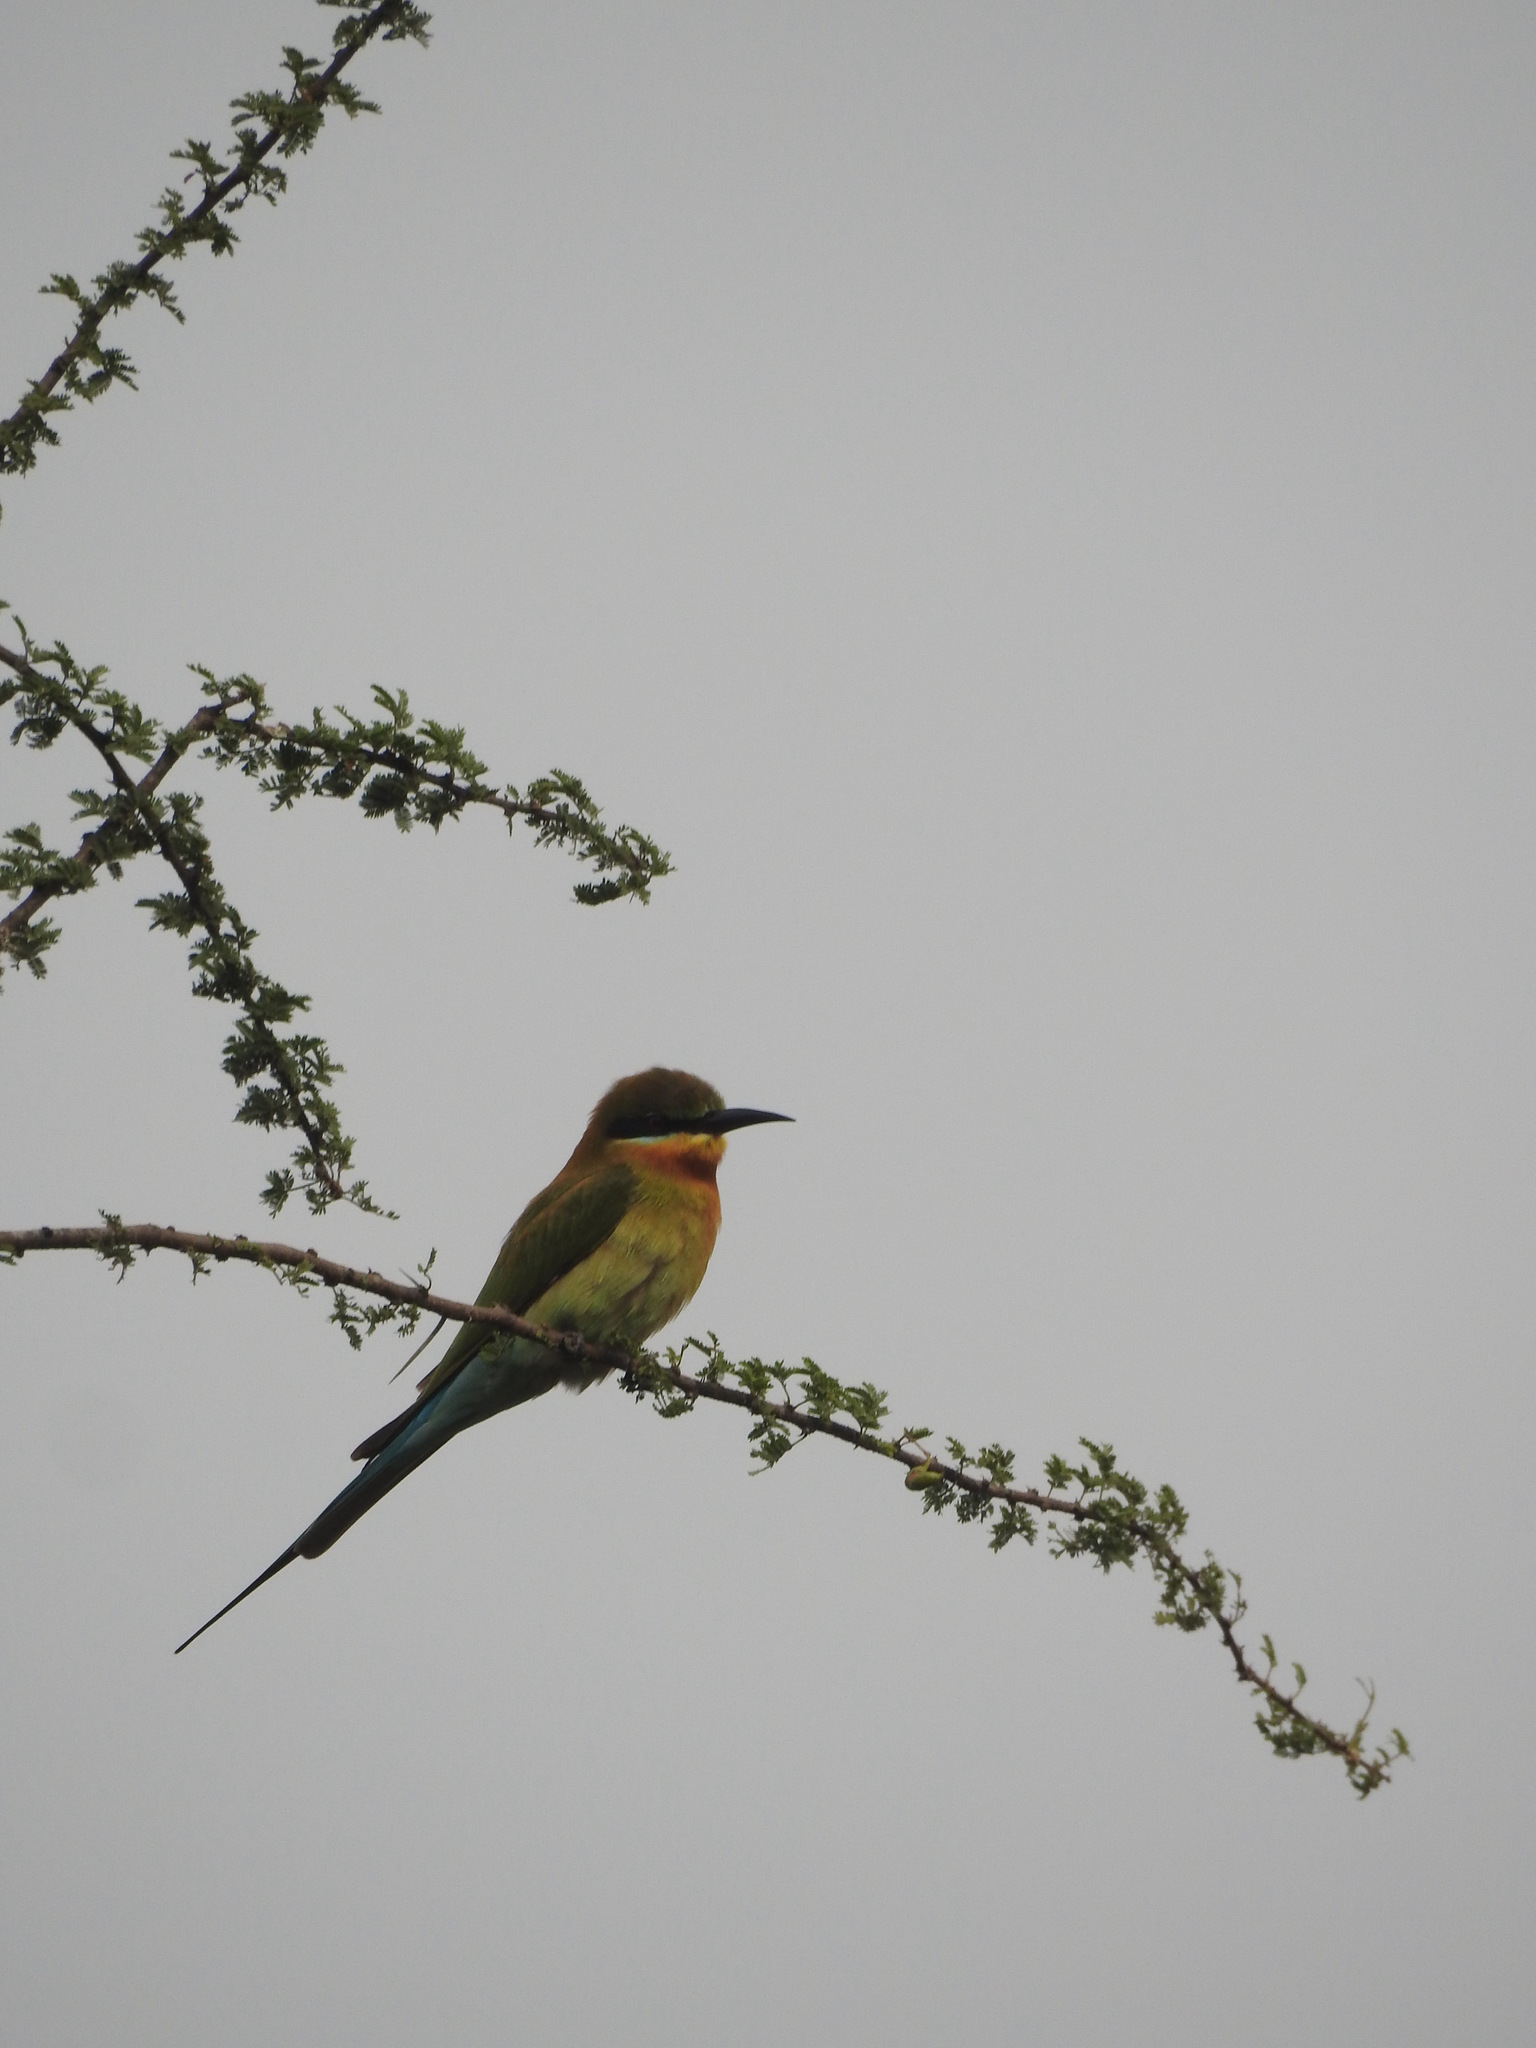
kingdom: Animalia
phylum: Chordata
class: Aves
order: Coraciiformes
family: Meropidae
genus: Merops
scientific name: Merops philippinus
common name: Blue-tailed bee-eater
